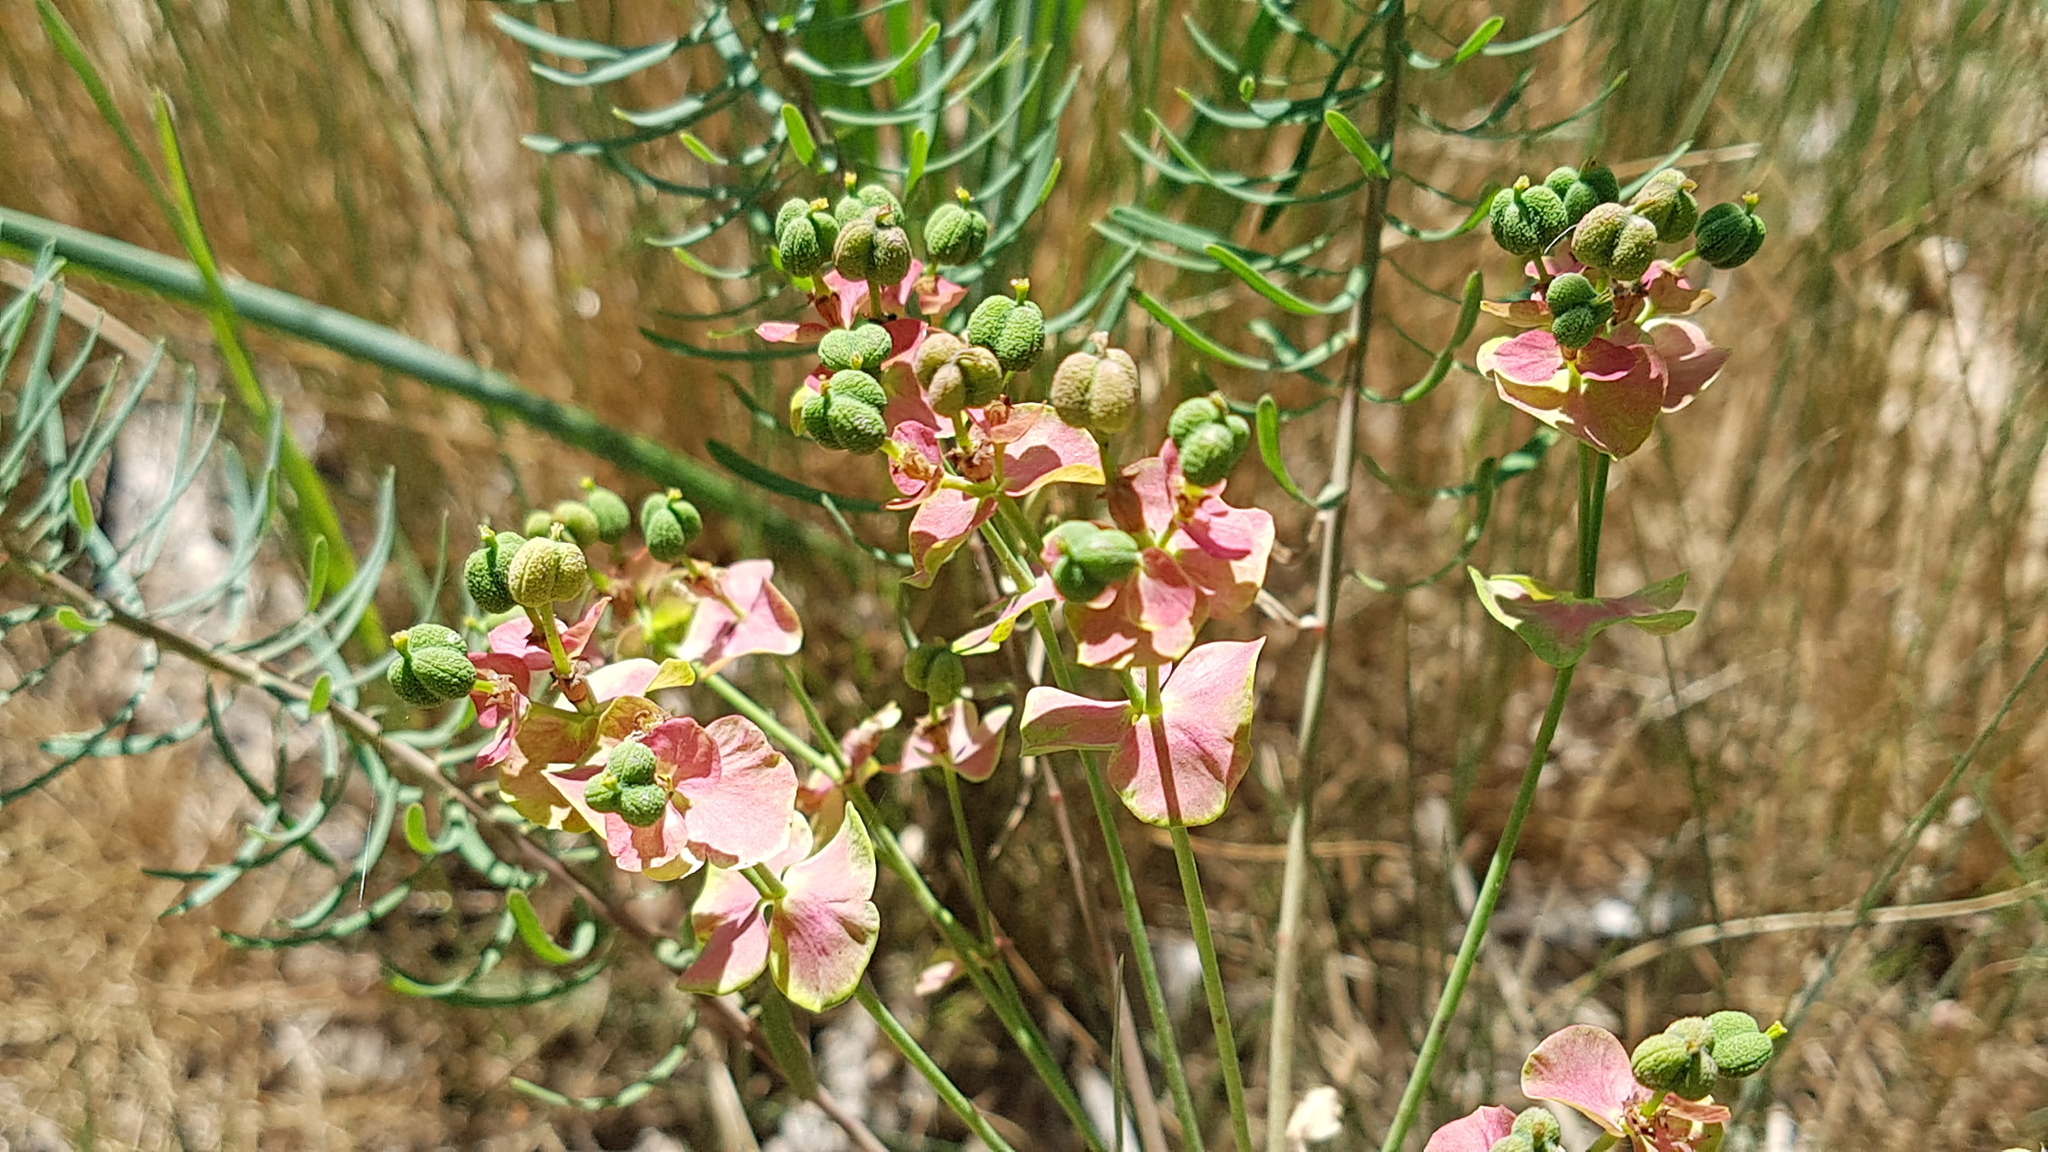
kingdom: Plantae
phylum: Tracheophyta
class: Magnoliopsida
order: Malpighiales
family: Euphorbiaceae
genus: Euphorbia
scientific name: Euphorbia cyparissias
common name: Cypress spurge
